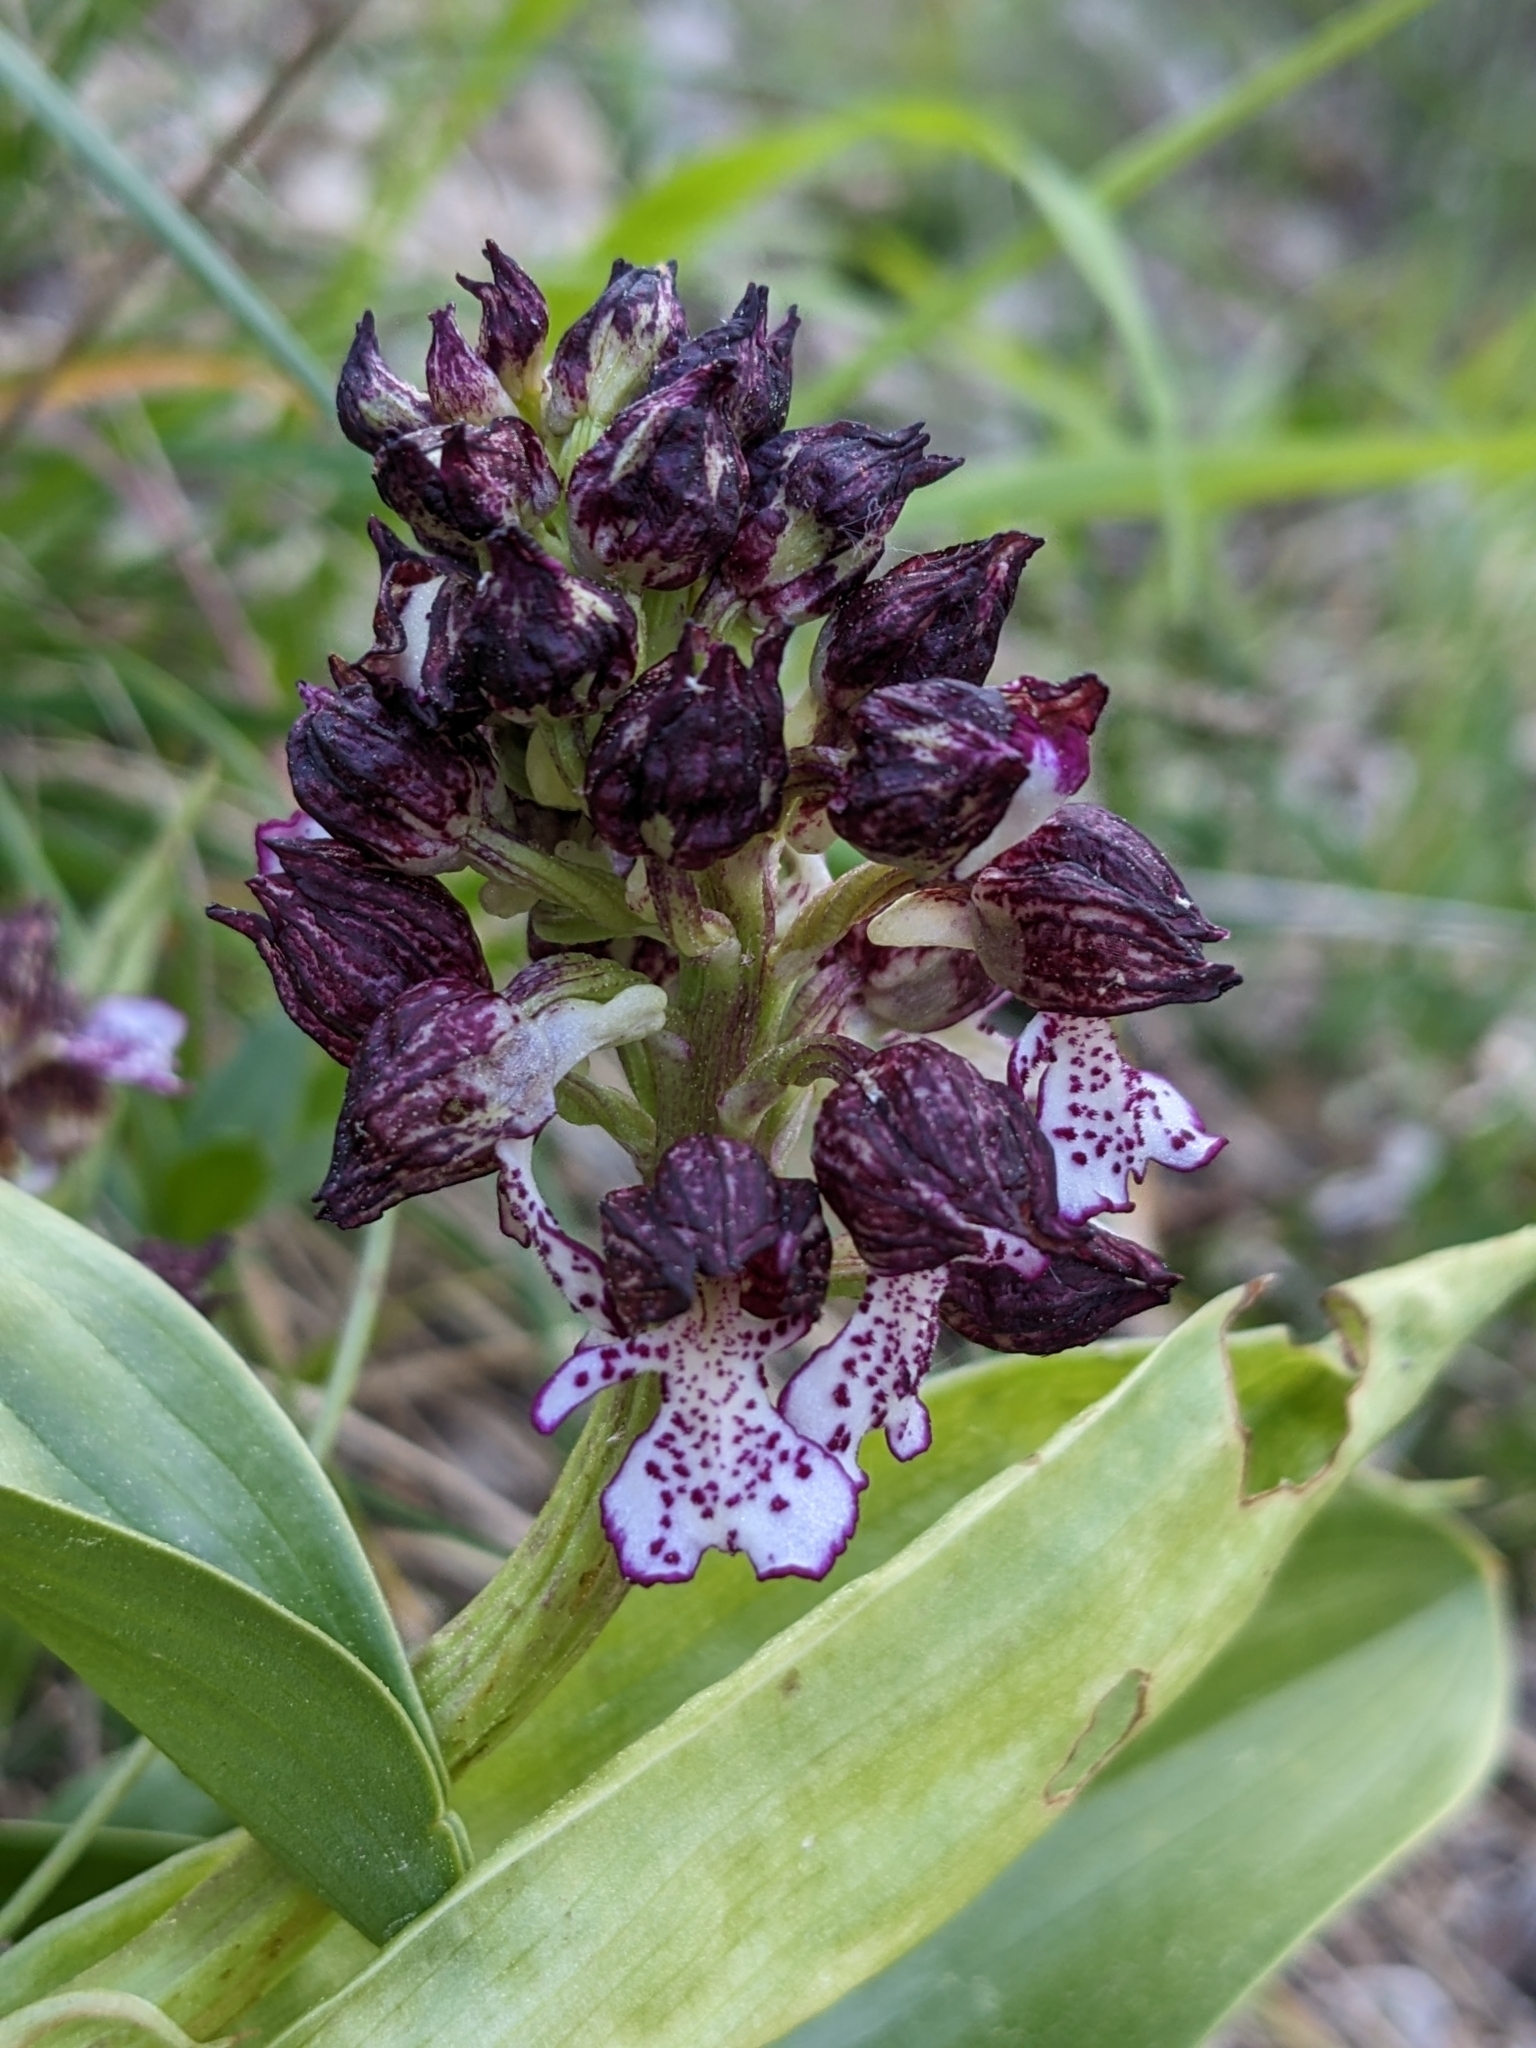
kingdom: Plantae
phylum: Tracheophyta
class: Liliopsida
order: Asparagales
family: Orchidaceae
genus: Orchis
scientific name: Orchis purpurea
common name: Lady orchid
